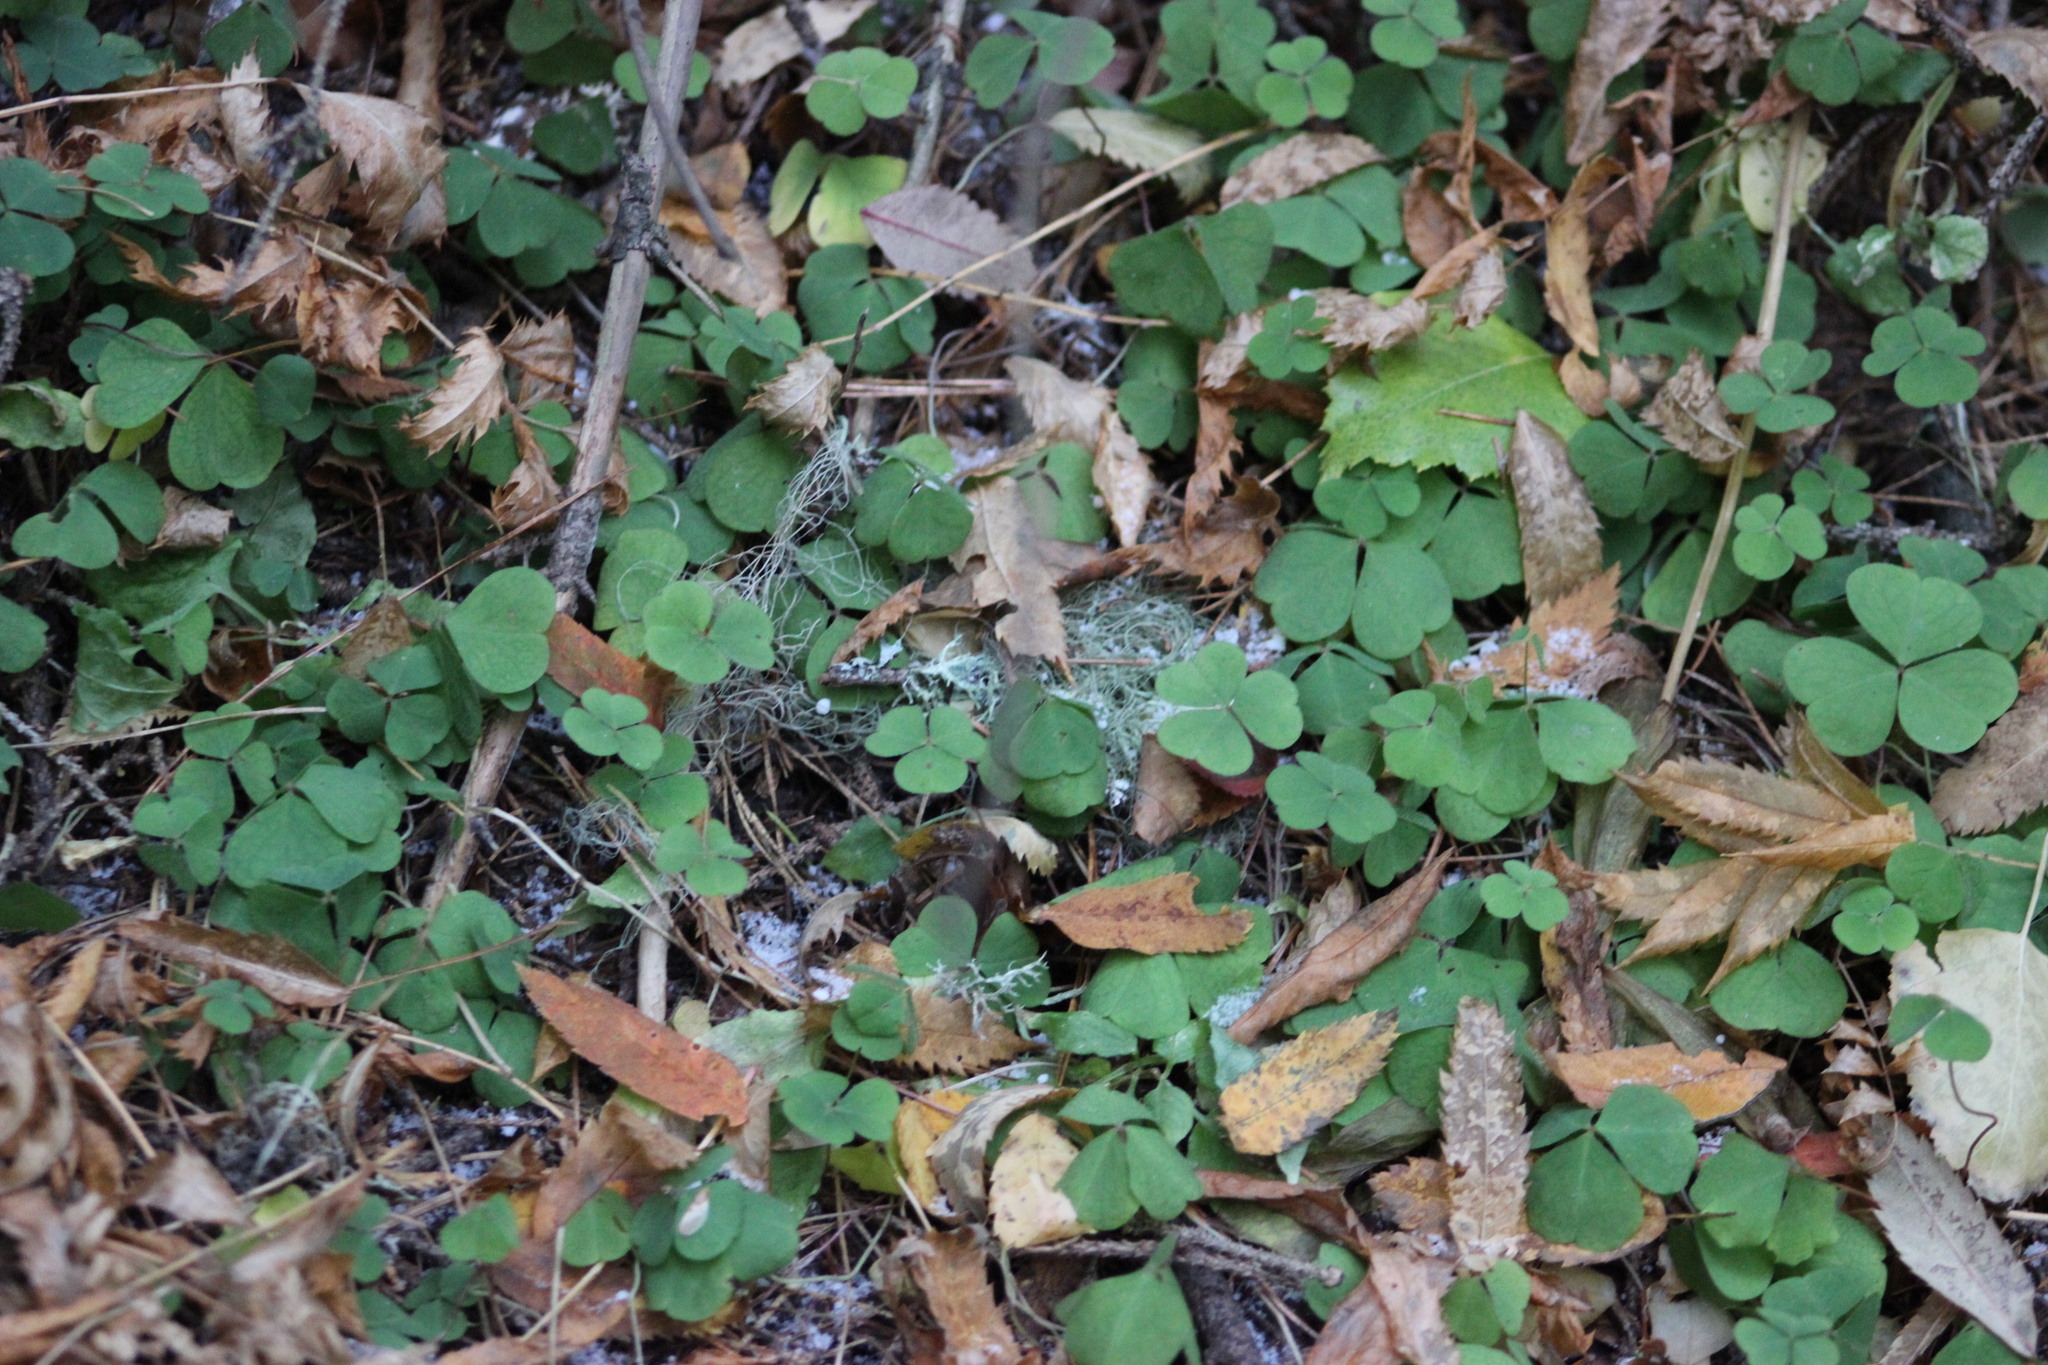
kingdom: Plantae
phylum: Tracheophyta
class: Magnoliopsida
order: Oxalidales
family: Oxalidaceae
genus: Oxalis
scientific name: Oxalis acetosella
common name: Wood-sorrel
